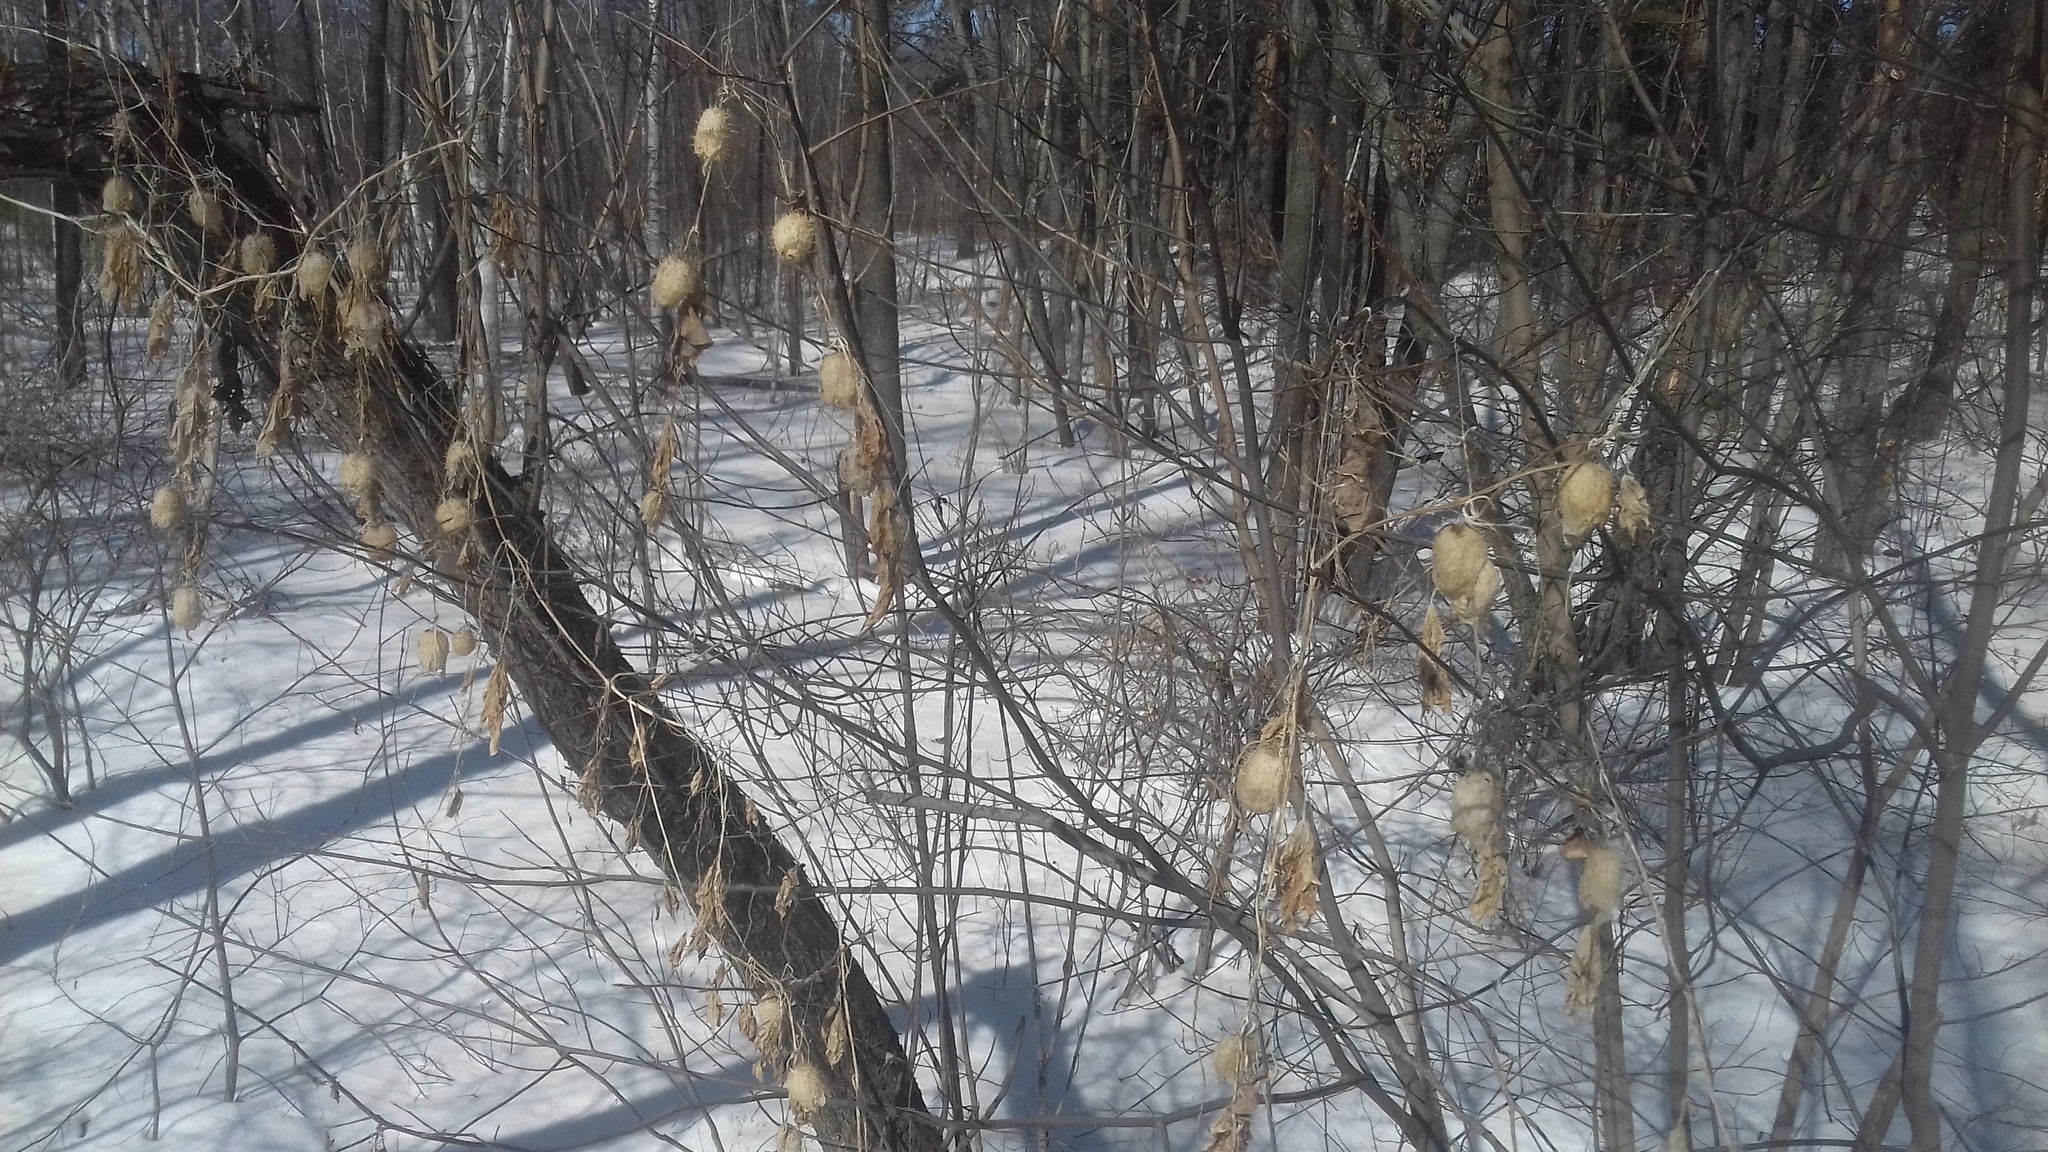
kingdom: Plantae
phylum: Tracheophyta
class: Magnoliopsida
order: Cucurbitales
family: Cucurbitaceae
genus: Echinocystis
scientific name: Echinocystis lobata
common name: Wild cucumber
